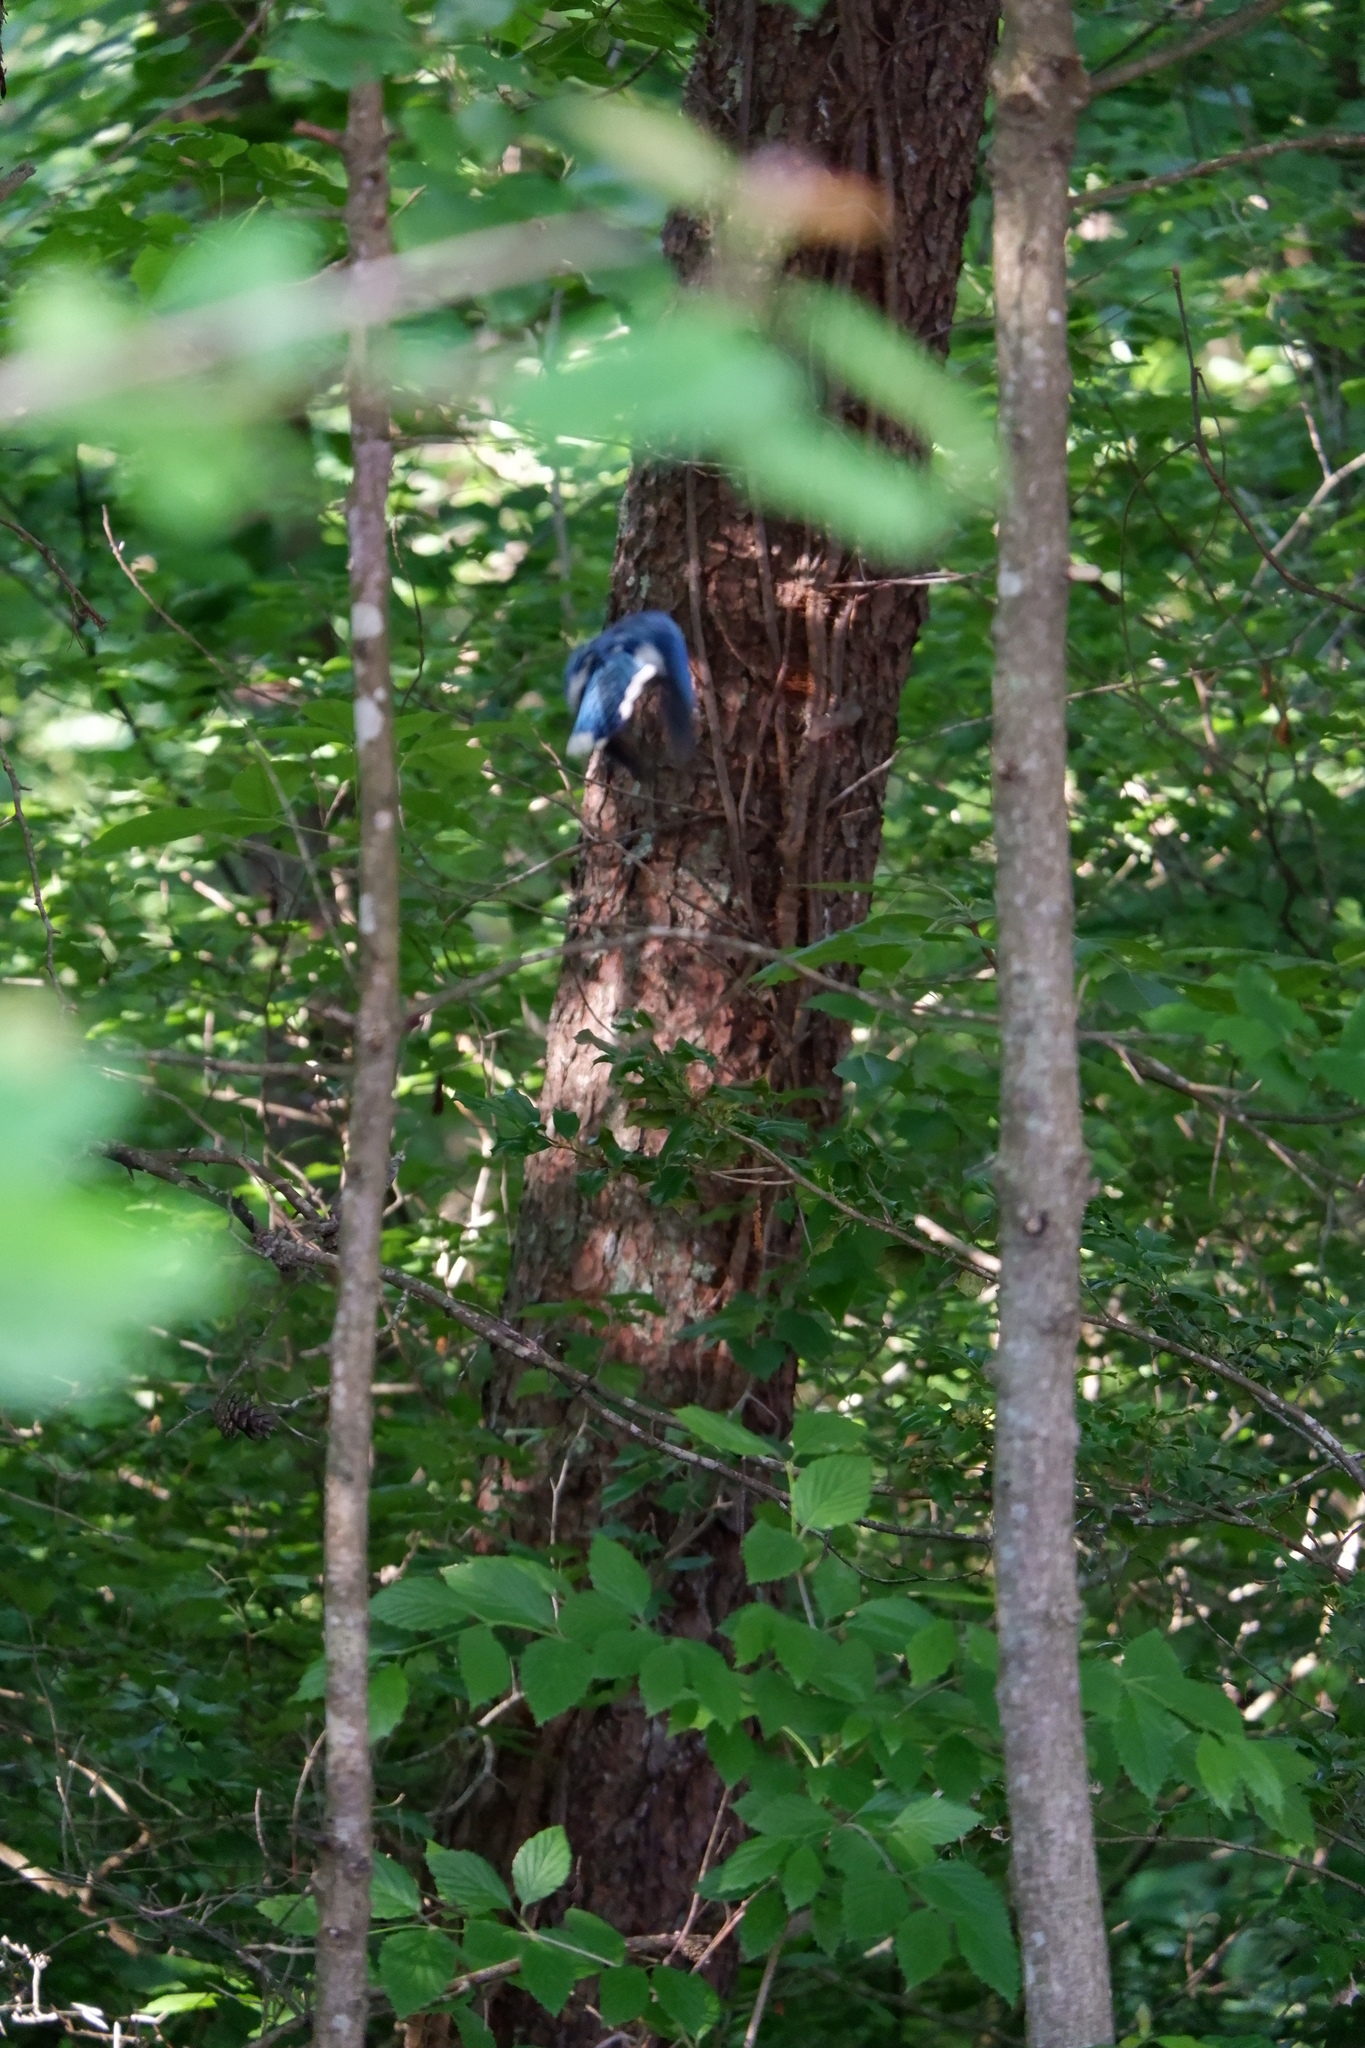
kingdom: Animalia
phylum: Chordata
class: Aves
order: Passeriformes
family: Corvidae
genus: Cyanocitta
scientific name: Cyanocitta cristata
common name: Blue jay
